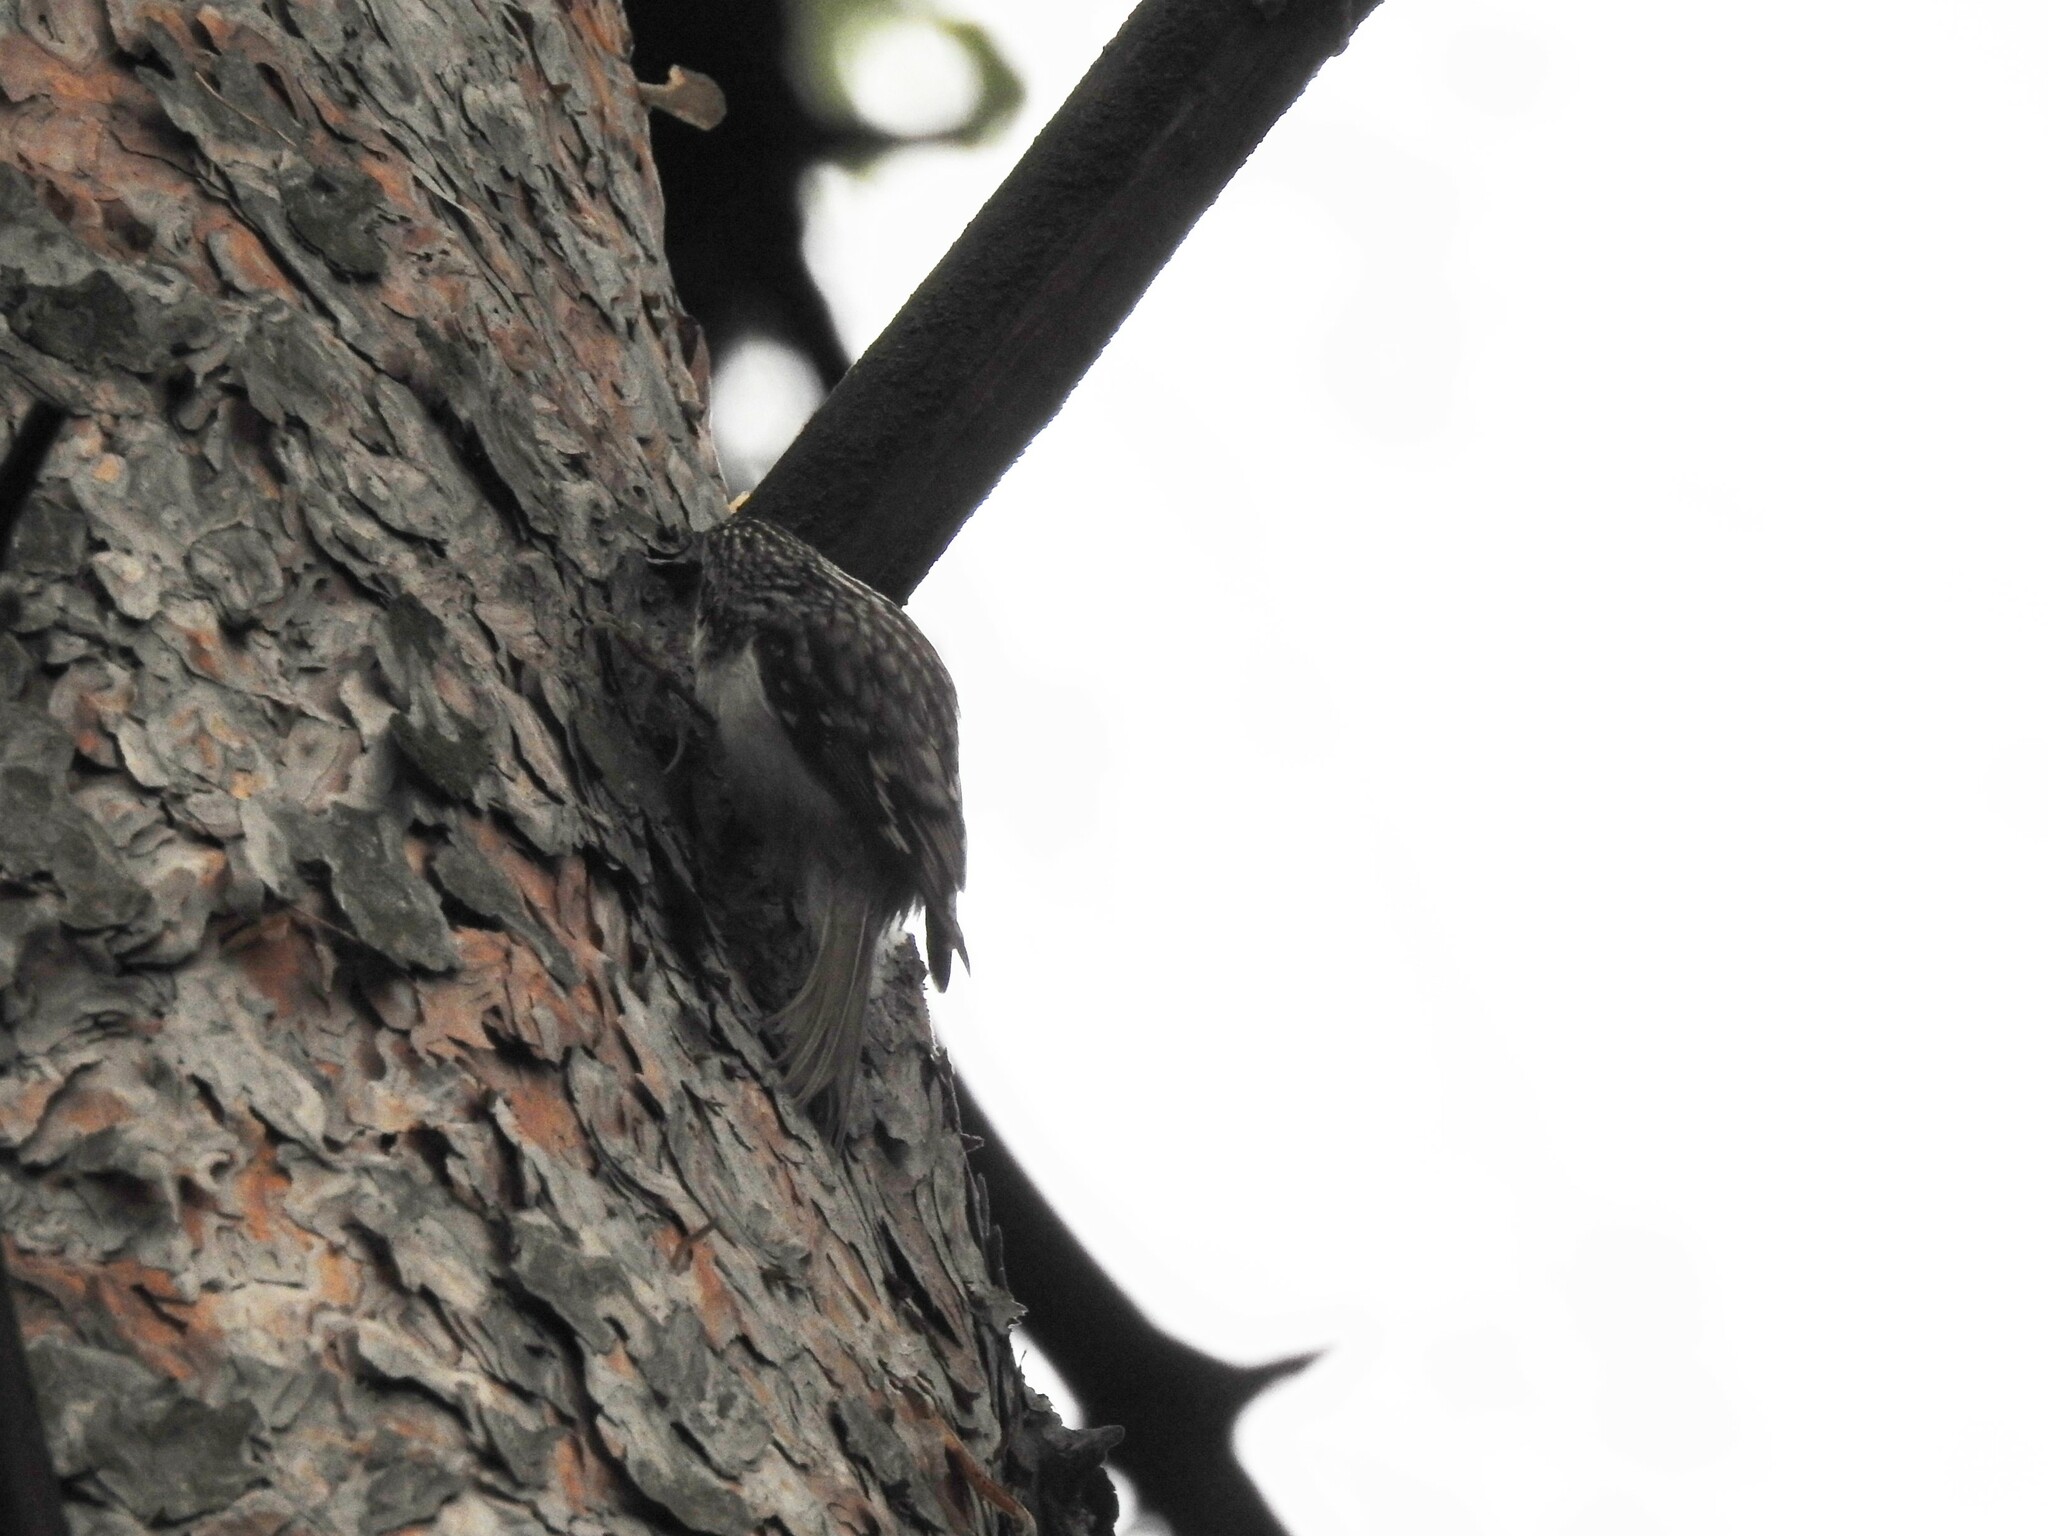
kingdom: Animalia
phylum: Chordata
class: Aves
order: Passeriformes
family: Certhiidae
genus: Certhia
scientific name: Certhia familiaris
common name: Eurasian treecreeper
